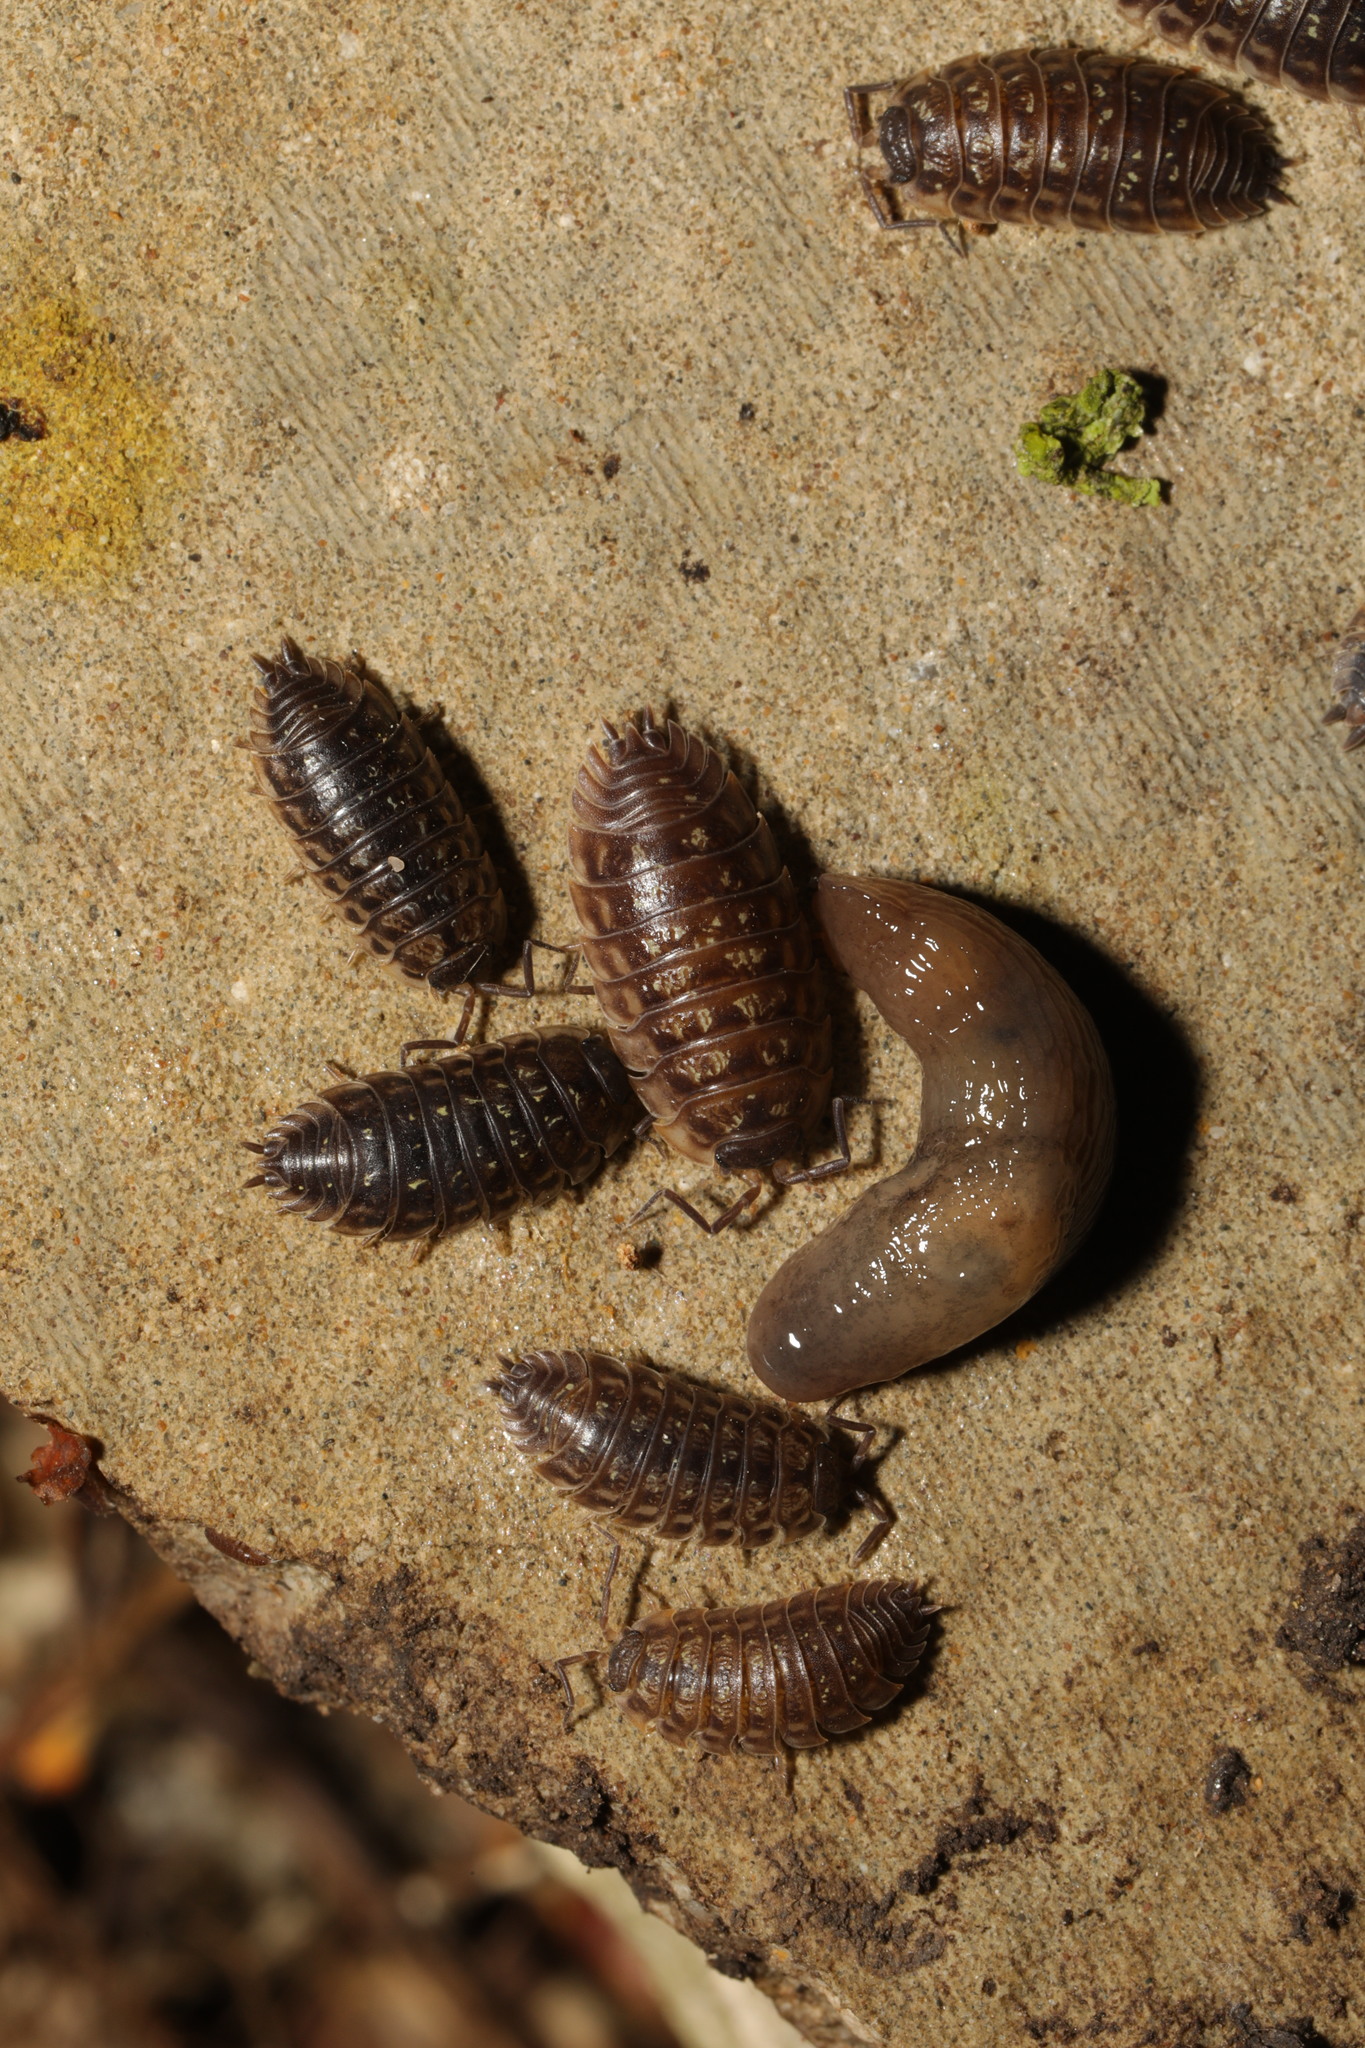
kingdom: Animalia
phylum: Arthropoda
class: Malacostraca
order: Isopoda
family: Oniscidae
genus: Oniscus
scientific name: Oniscus asellus
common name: Common shiny woodlouse
